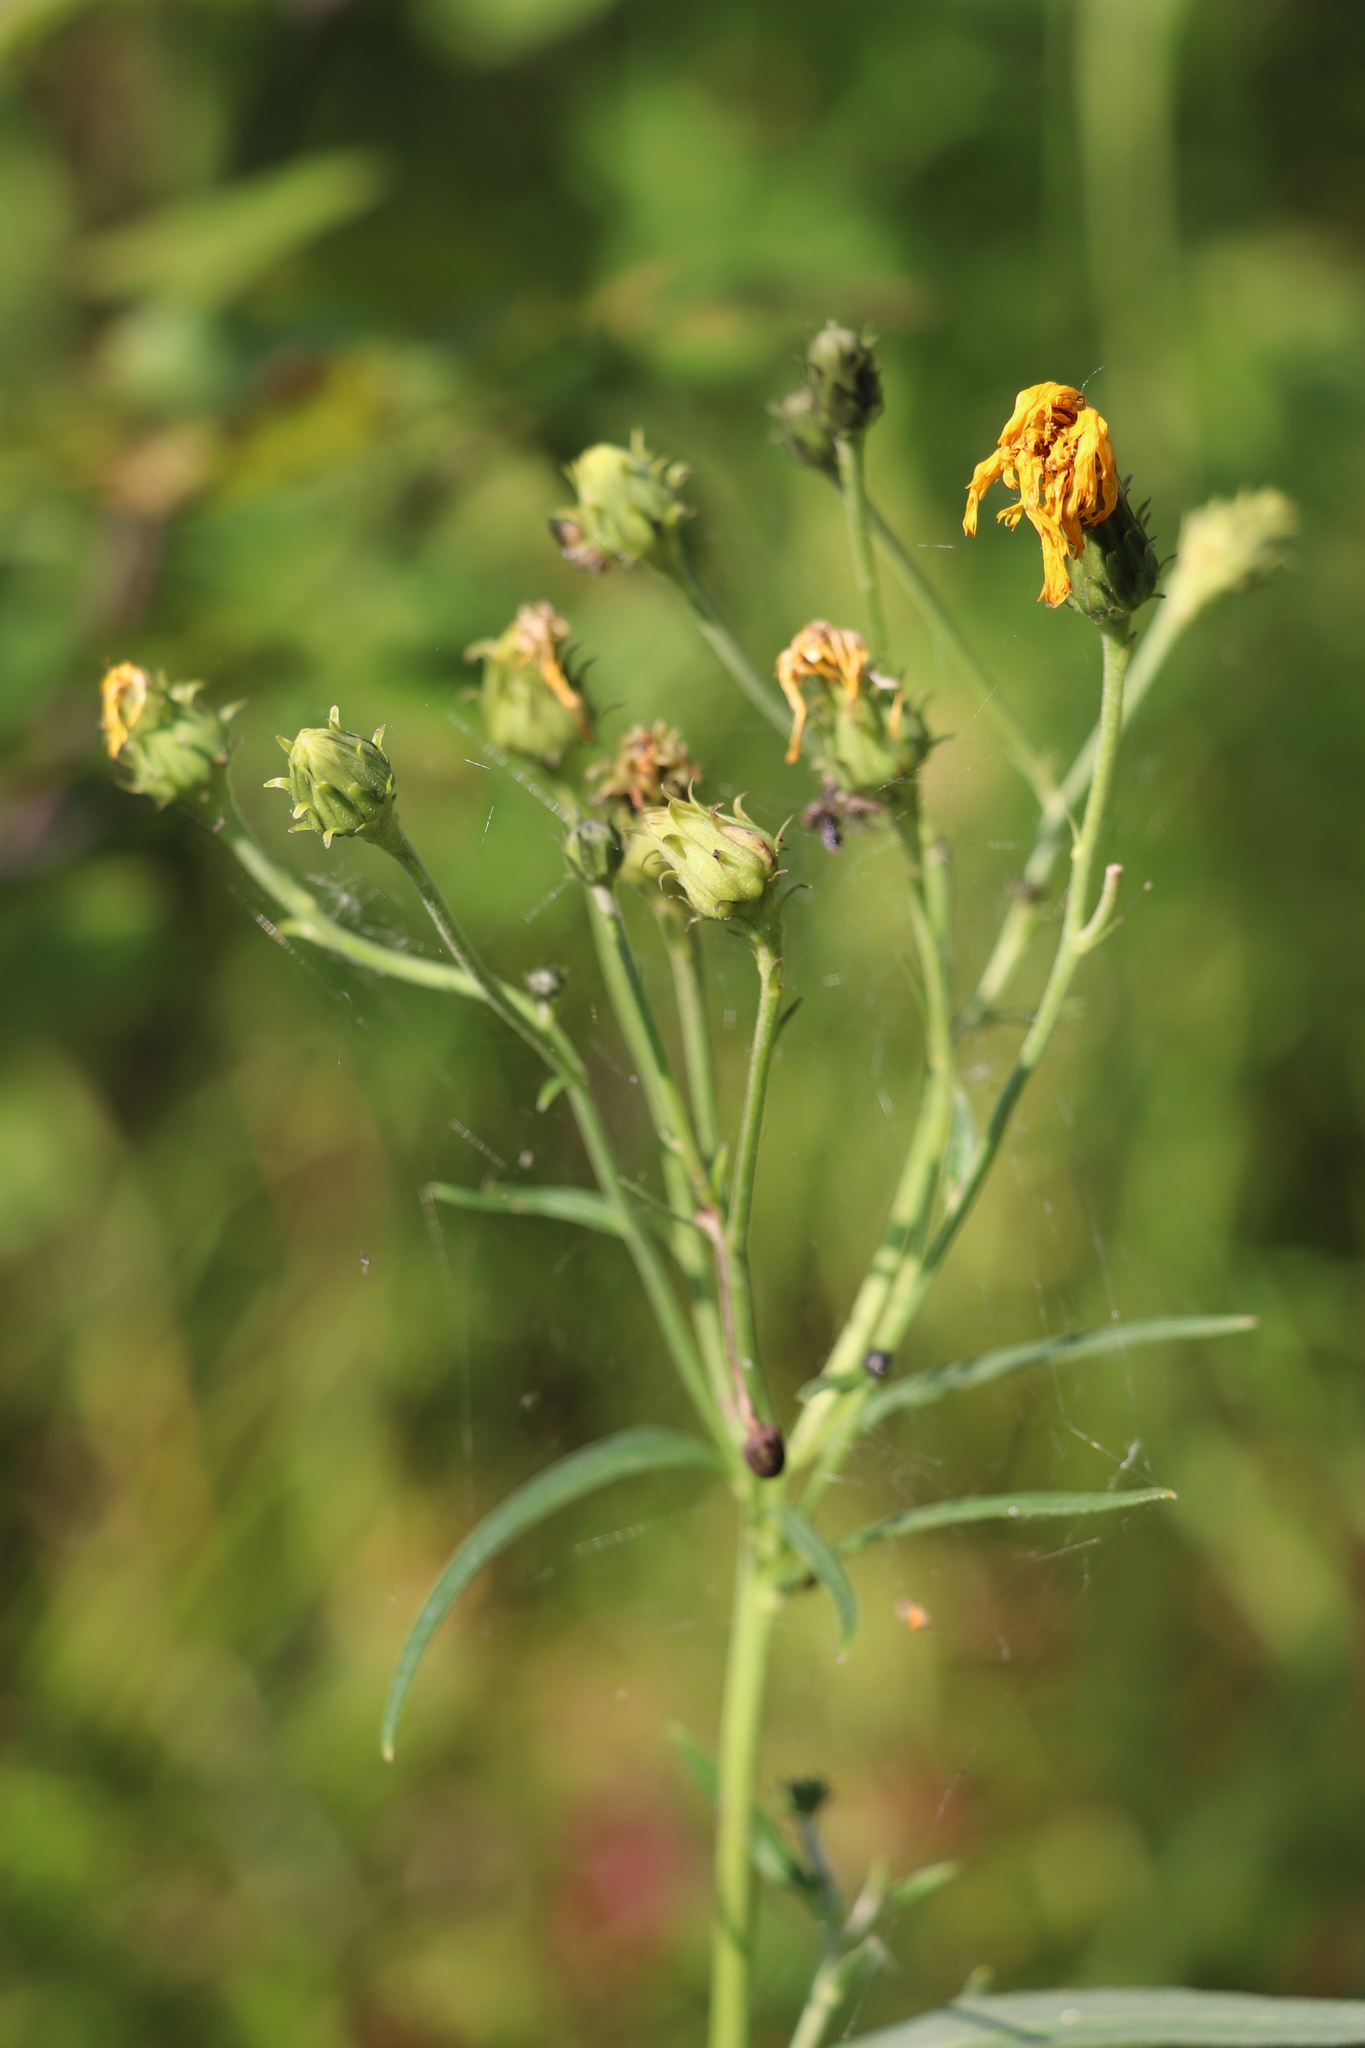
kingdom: Plantae
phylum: Tracheophyta
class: Magnoliopsida
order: Asterales
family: Asteraceae
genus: Hieracium
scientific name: Hieracium umbellatum
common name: Northern hawkweed
